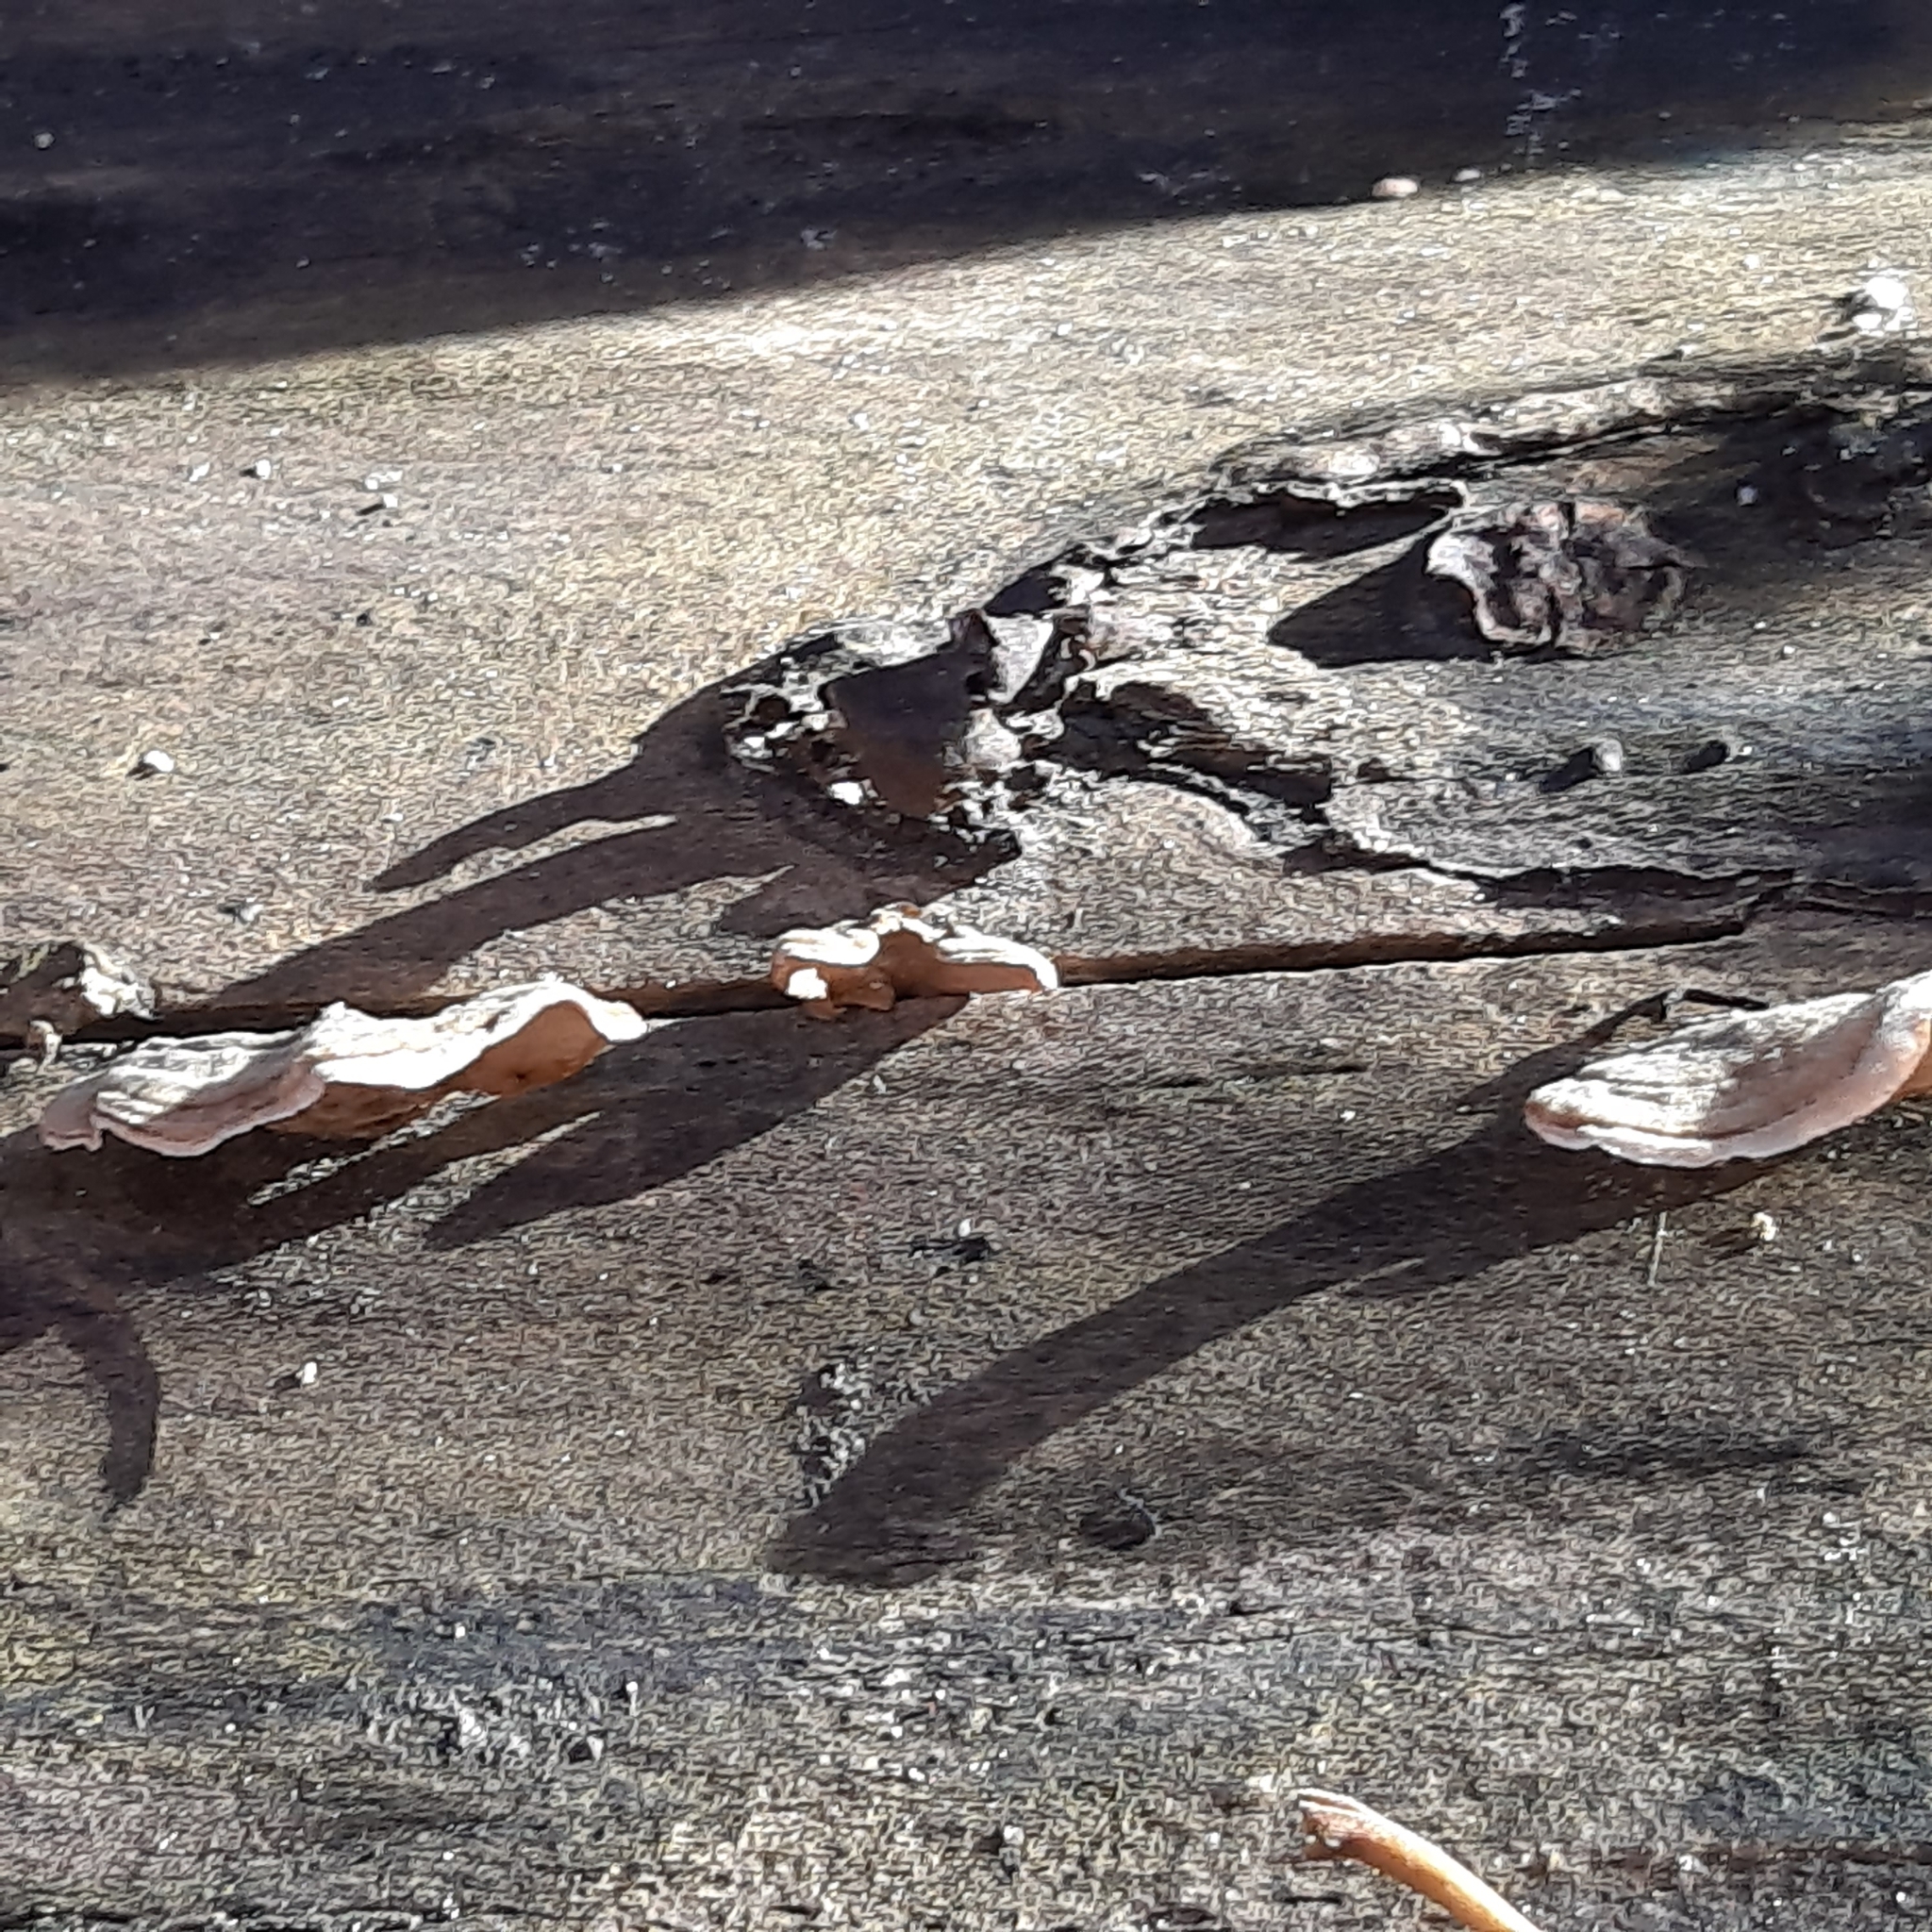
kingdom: Fungi
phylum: Basidiomycota
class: Agaricomycetes
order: Russulales
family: Stereaceae
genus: Stereum
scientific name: Stereum
